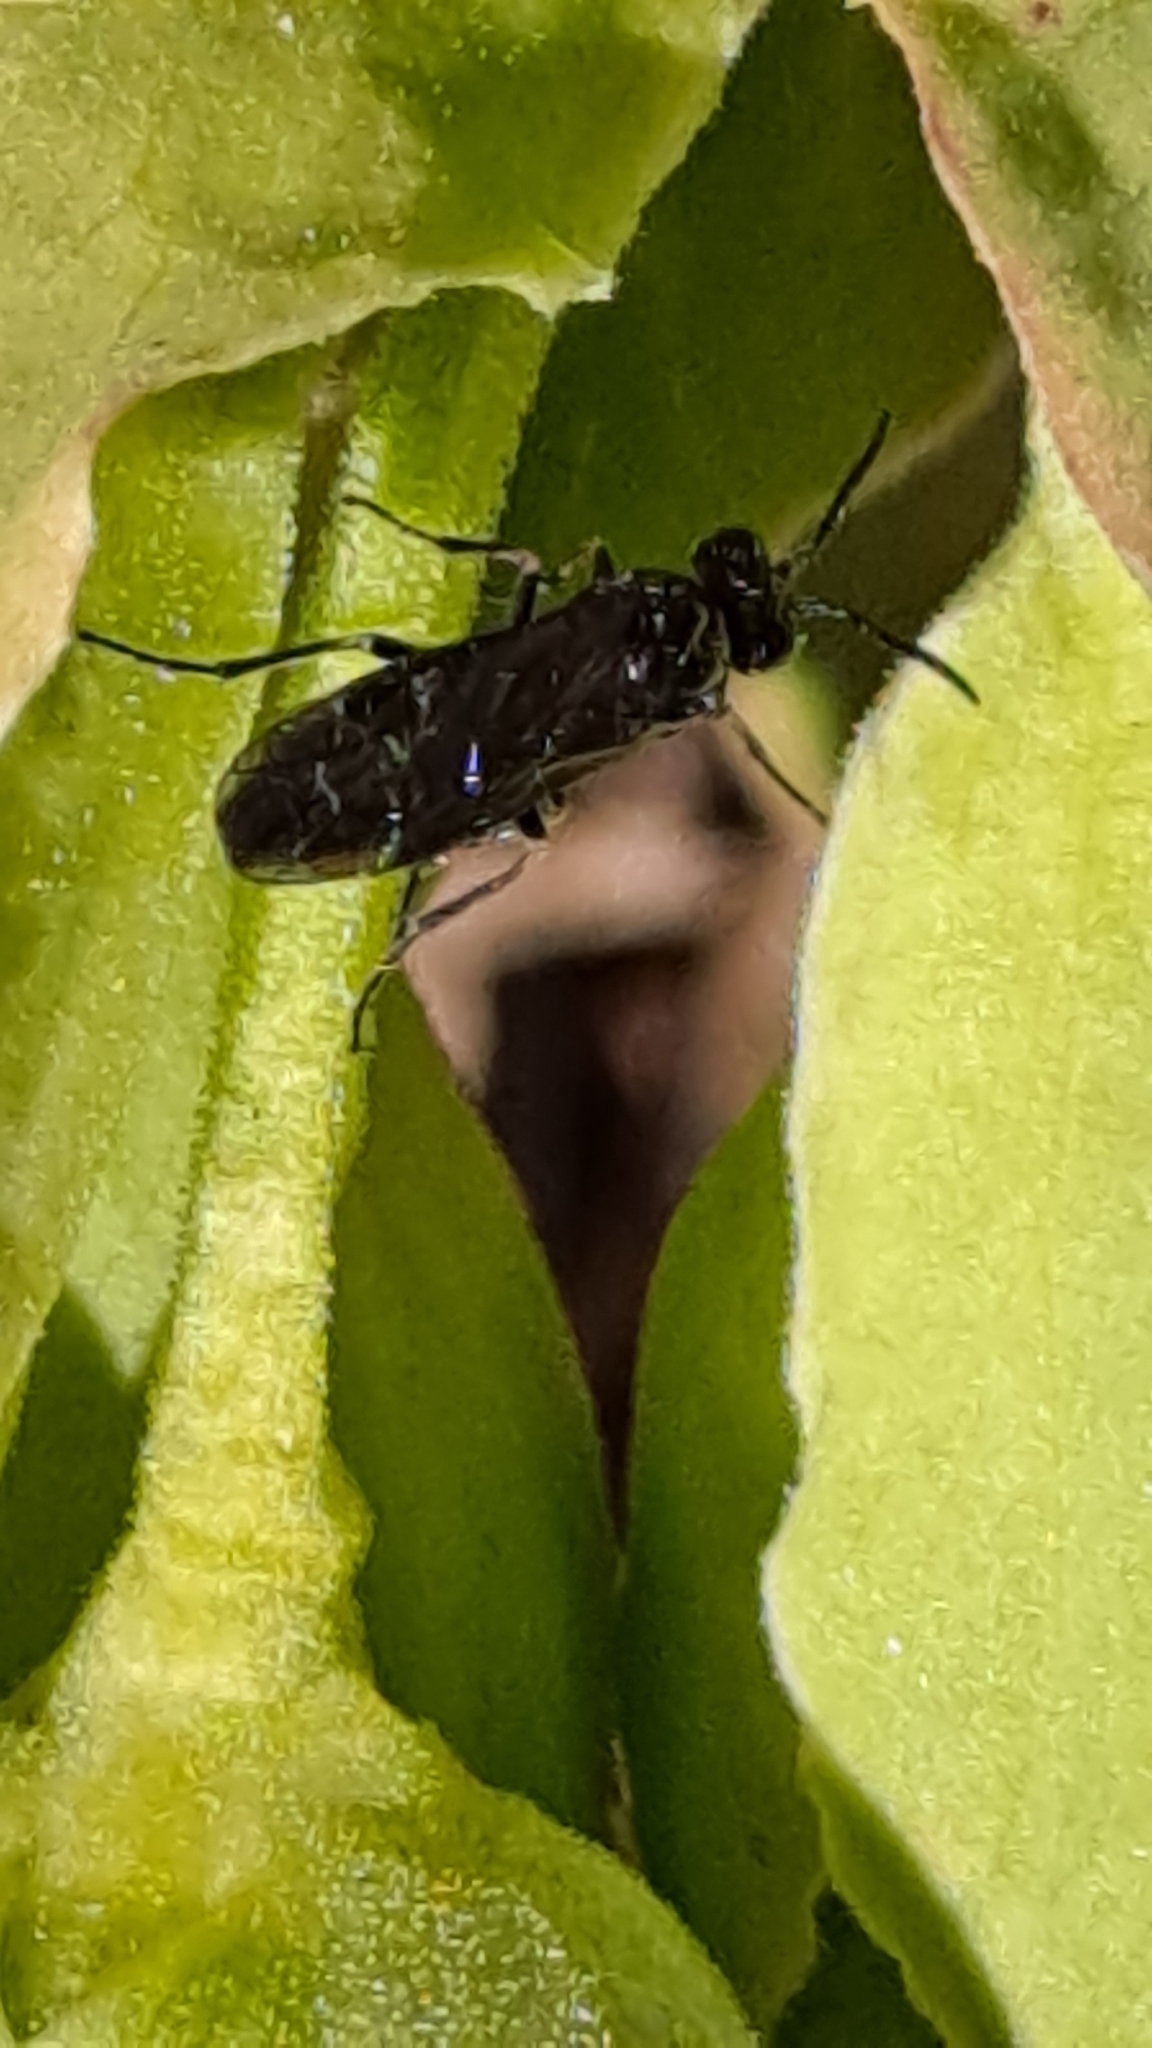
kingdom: Animalia
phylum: Arthropoda
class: Insecta
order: Hymenoptera
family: Tenthredinidae
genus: Monophadnus
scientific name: Monophadnus taegeri
